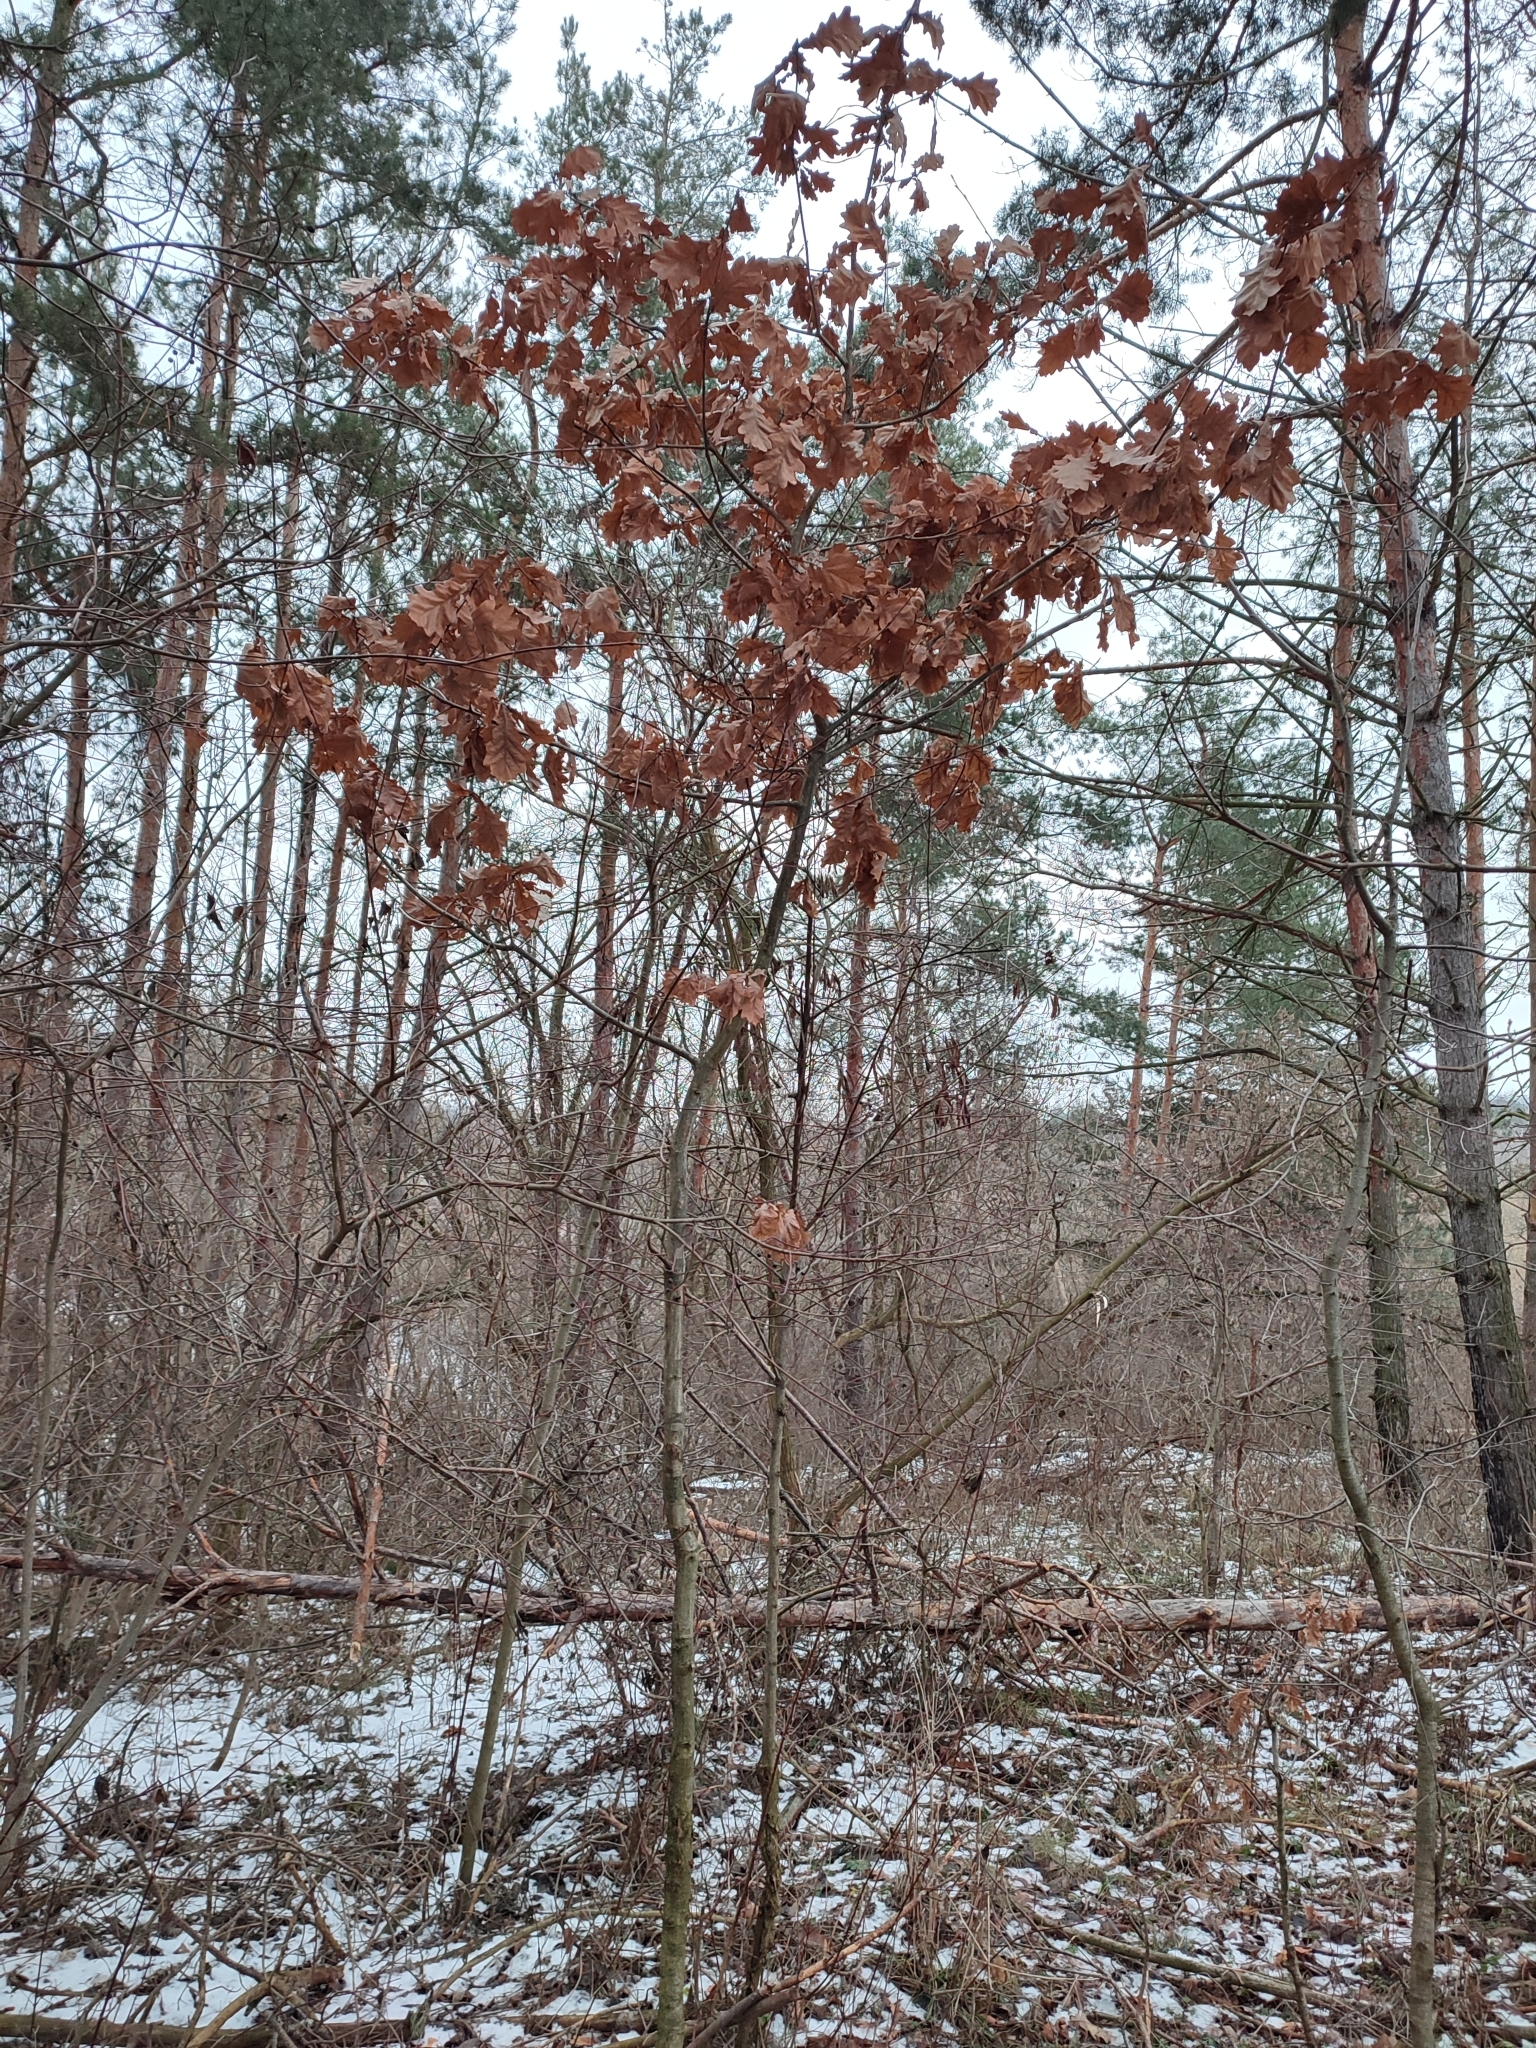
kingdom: Plantae
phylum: Tracheophyta
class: Magnoliopsida
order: Fagales
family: Fagaceae
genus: Quercus
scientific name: Quercus robur
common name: Pedunculate oak
